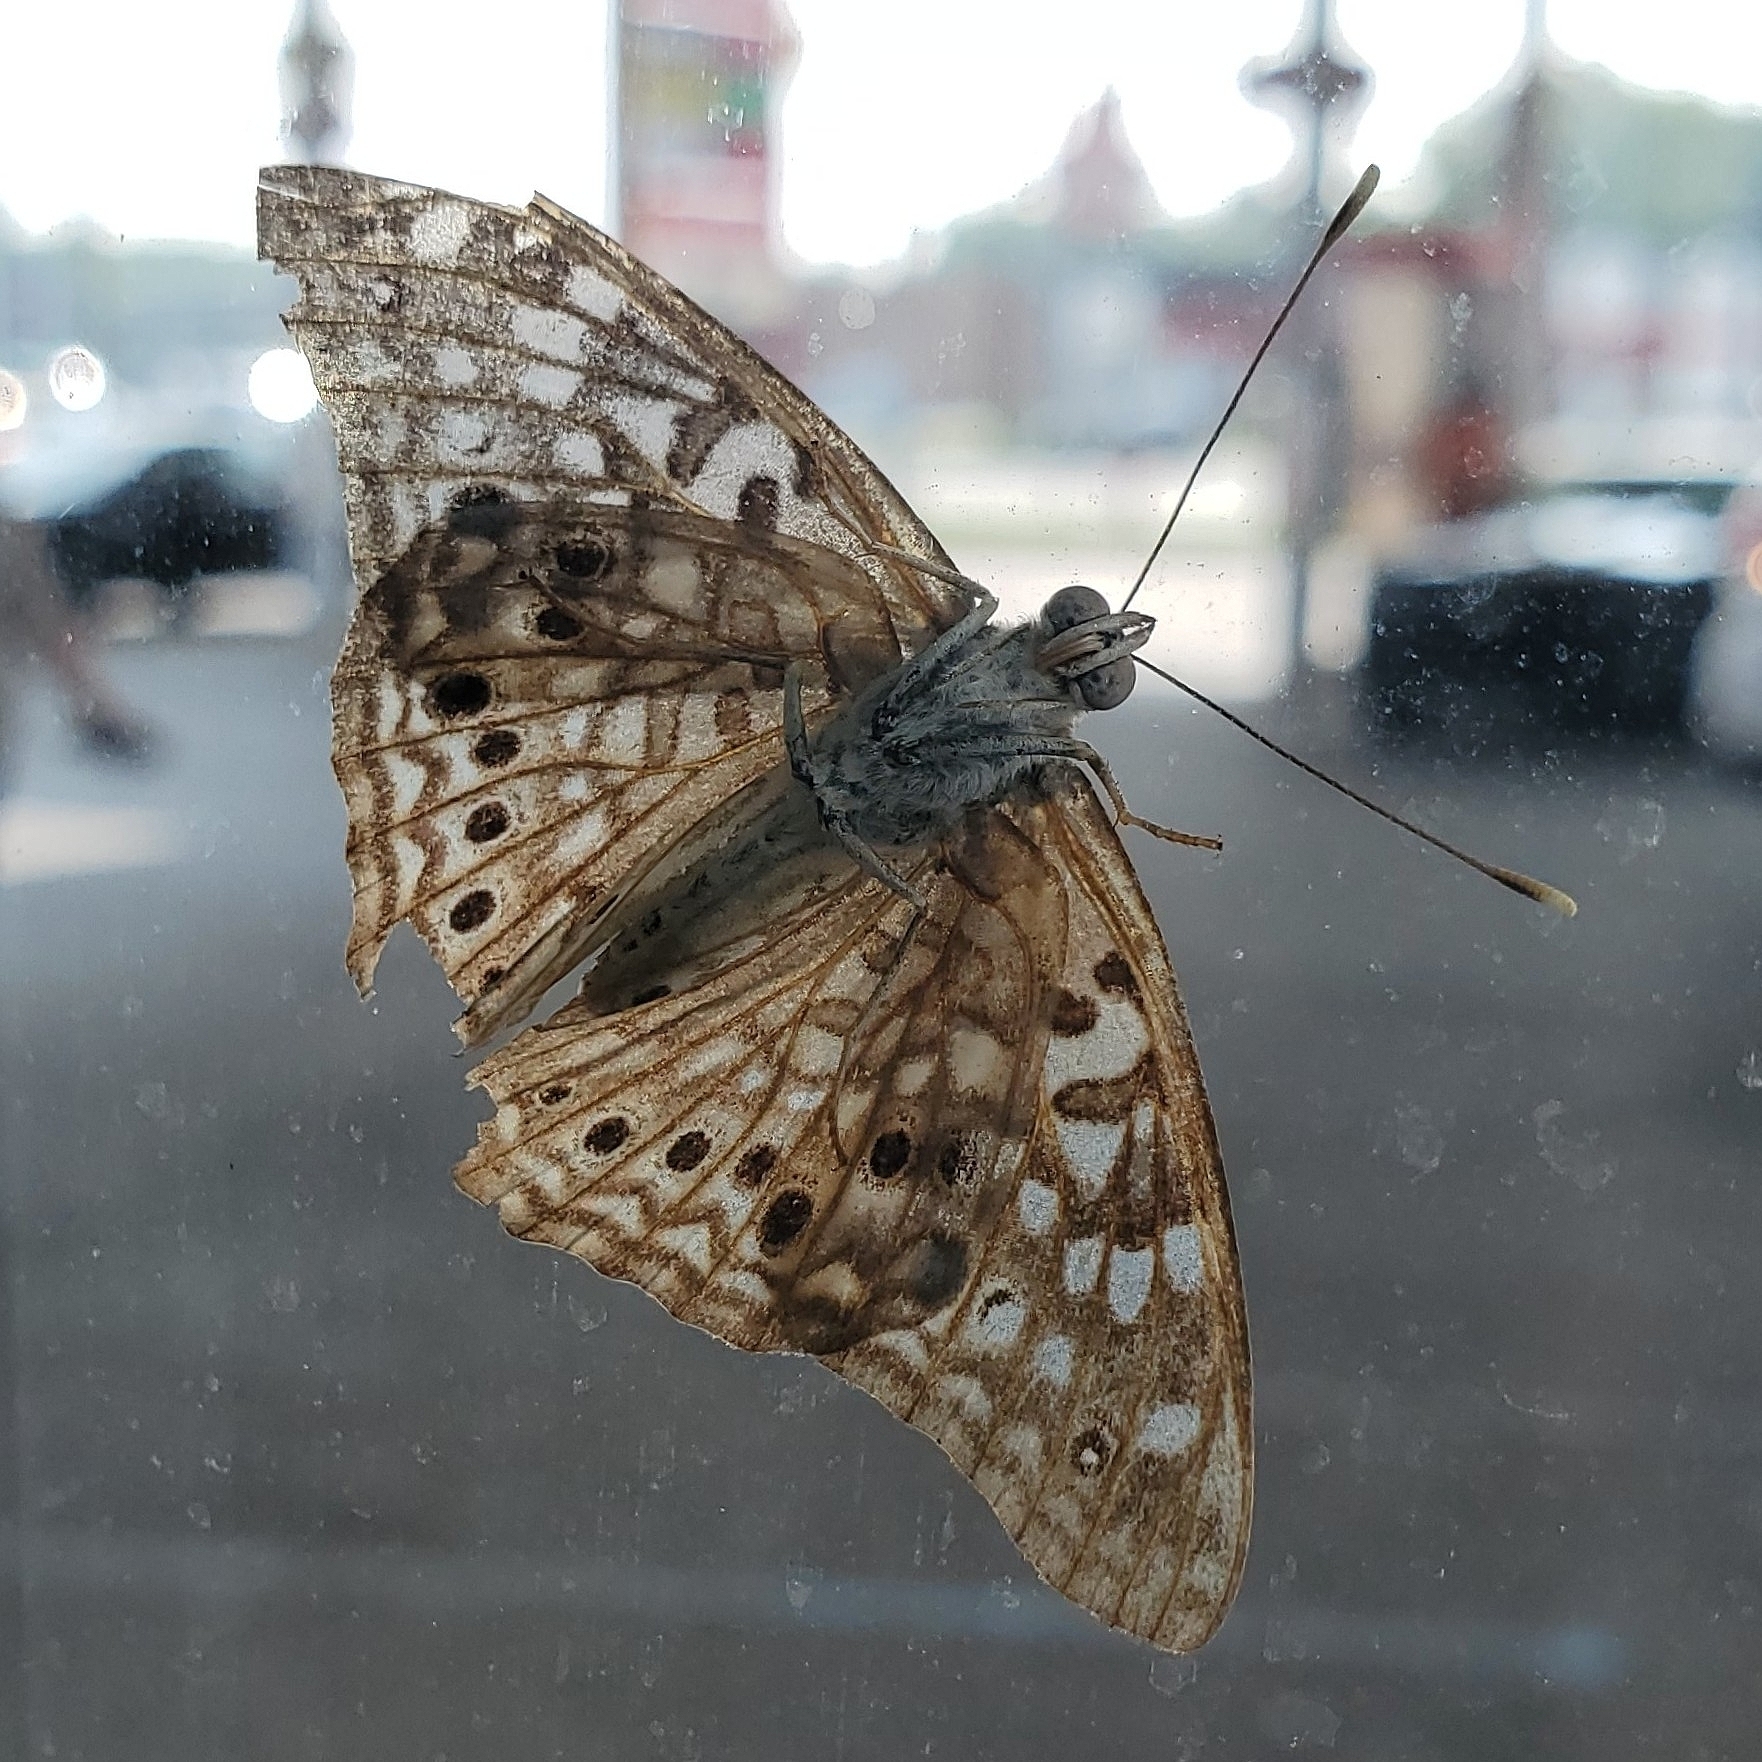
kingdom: Animalia
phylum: Arthropoda
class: Insecta
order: Lepidoptera
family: Nymphalidae
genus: Asterocampa
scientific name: Asterocampa celtis
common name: Hackberry emperor
